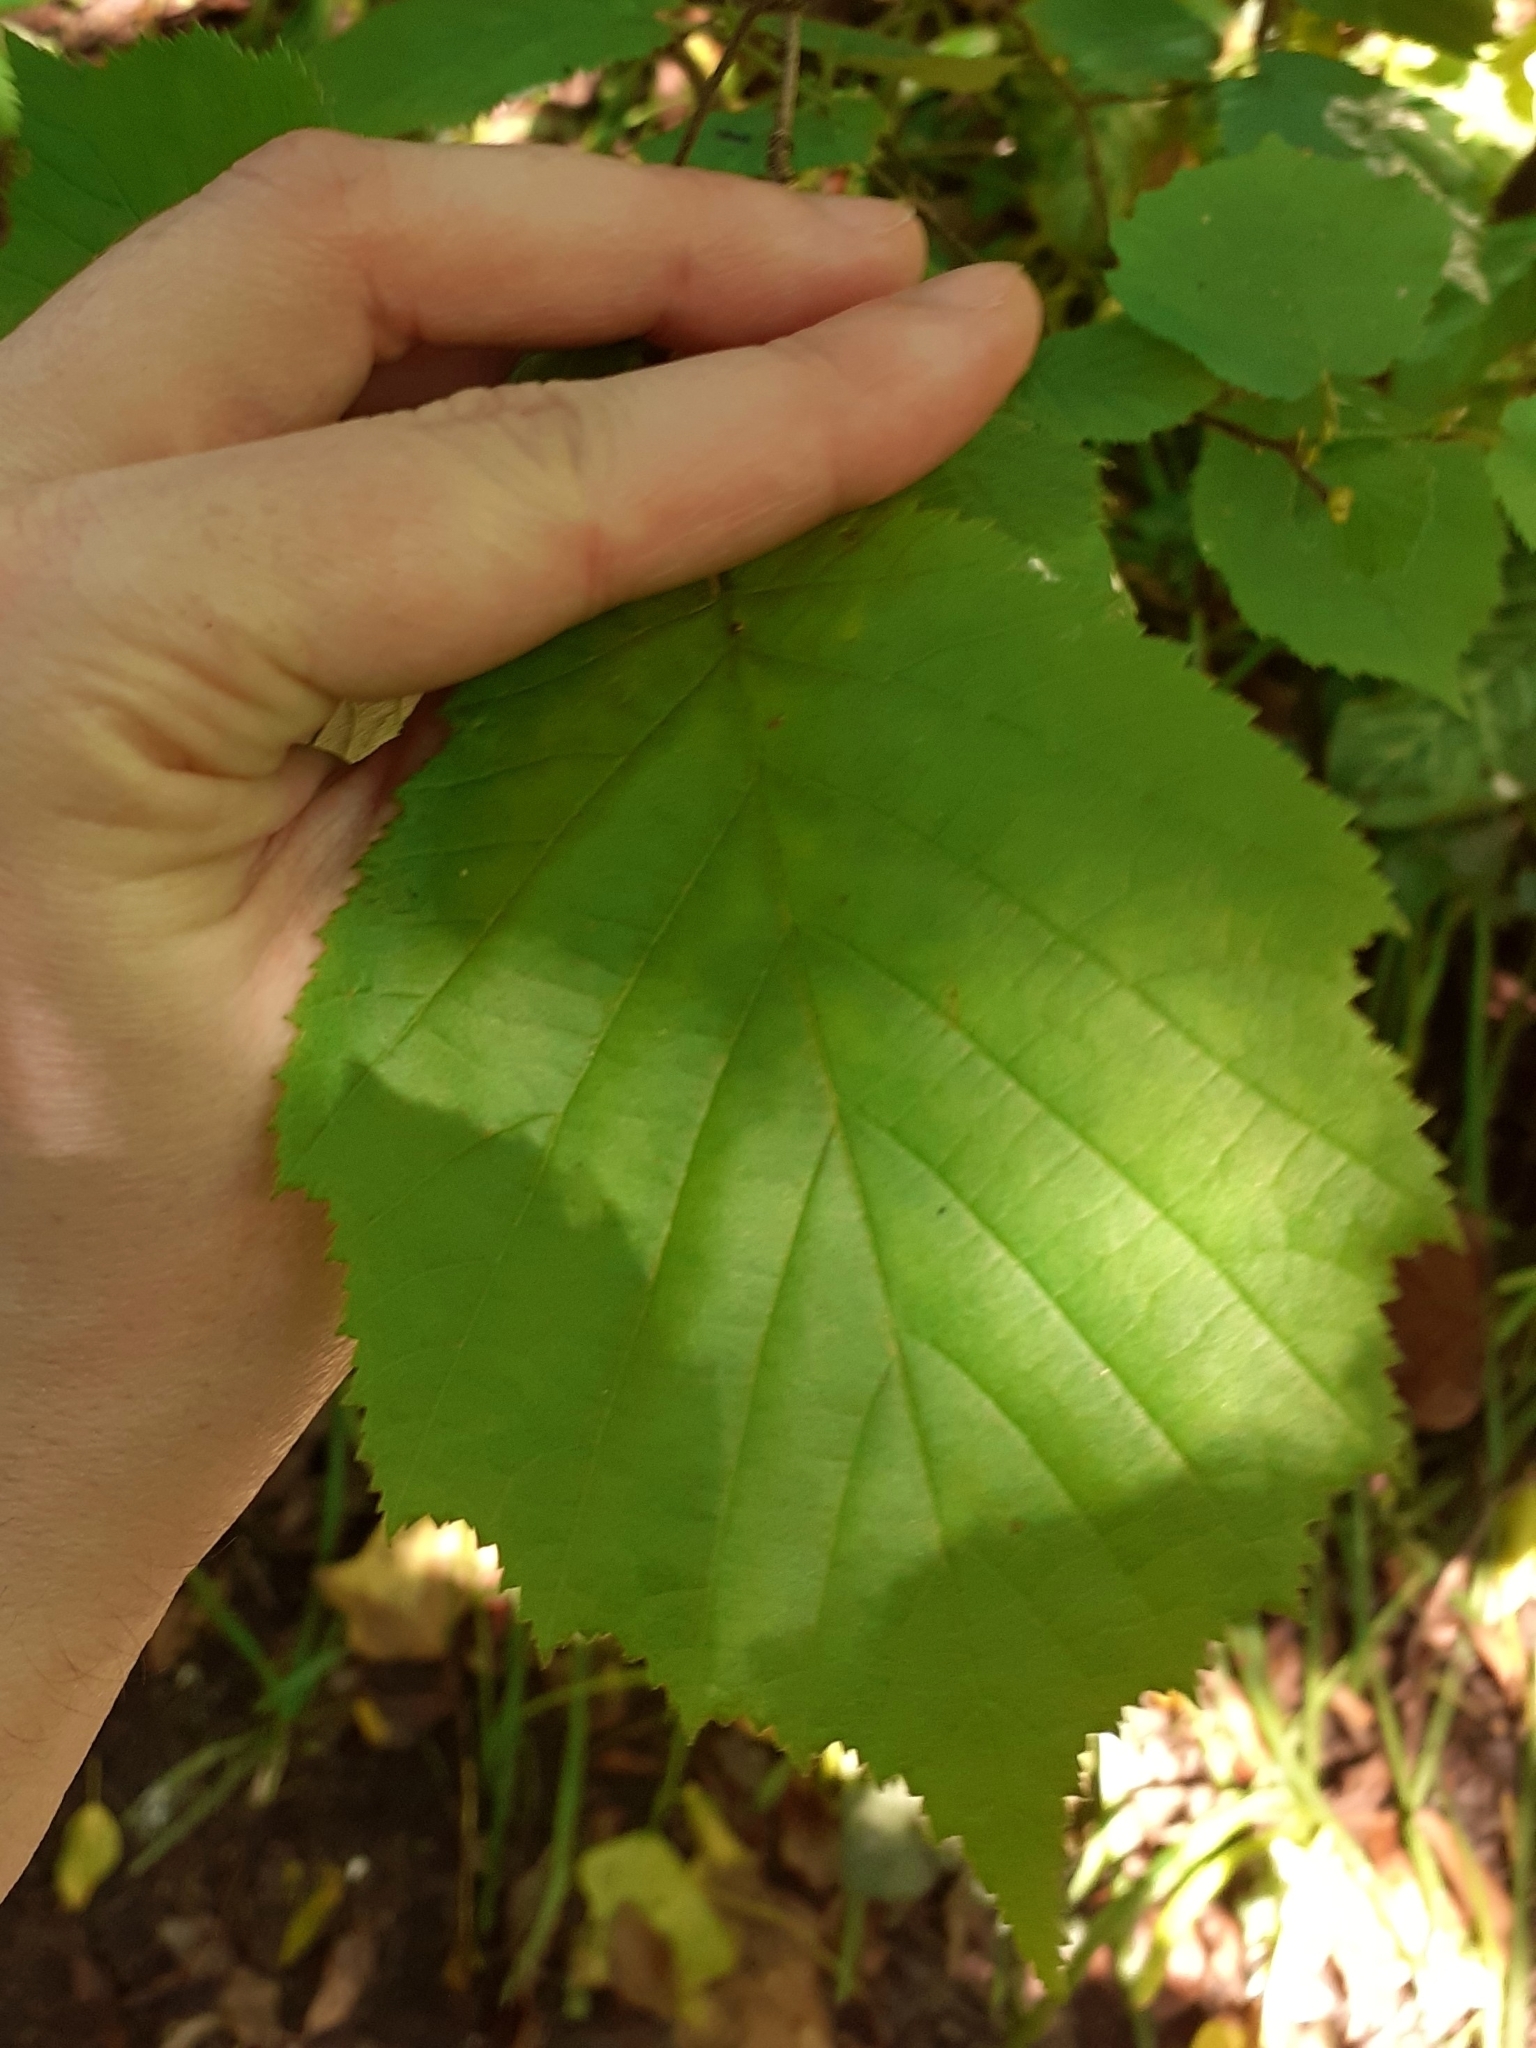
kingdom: Plantae
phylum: Tracheophyta
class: Magnoliopsida
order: Fagales
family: Betulaceae
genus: Corylus
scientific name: Corylus avellana
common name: European hazel
